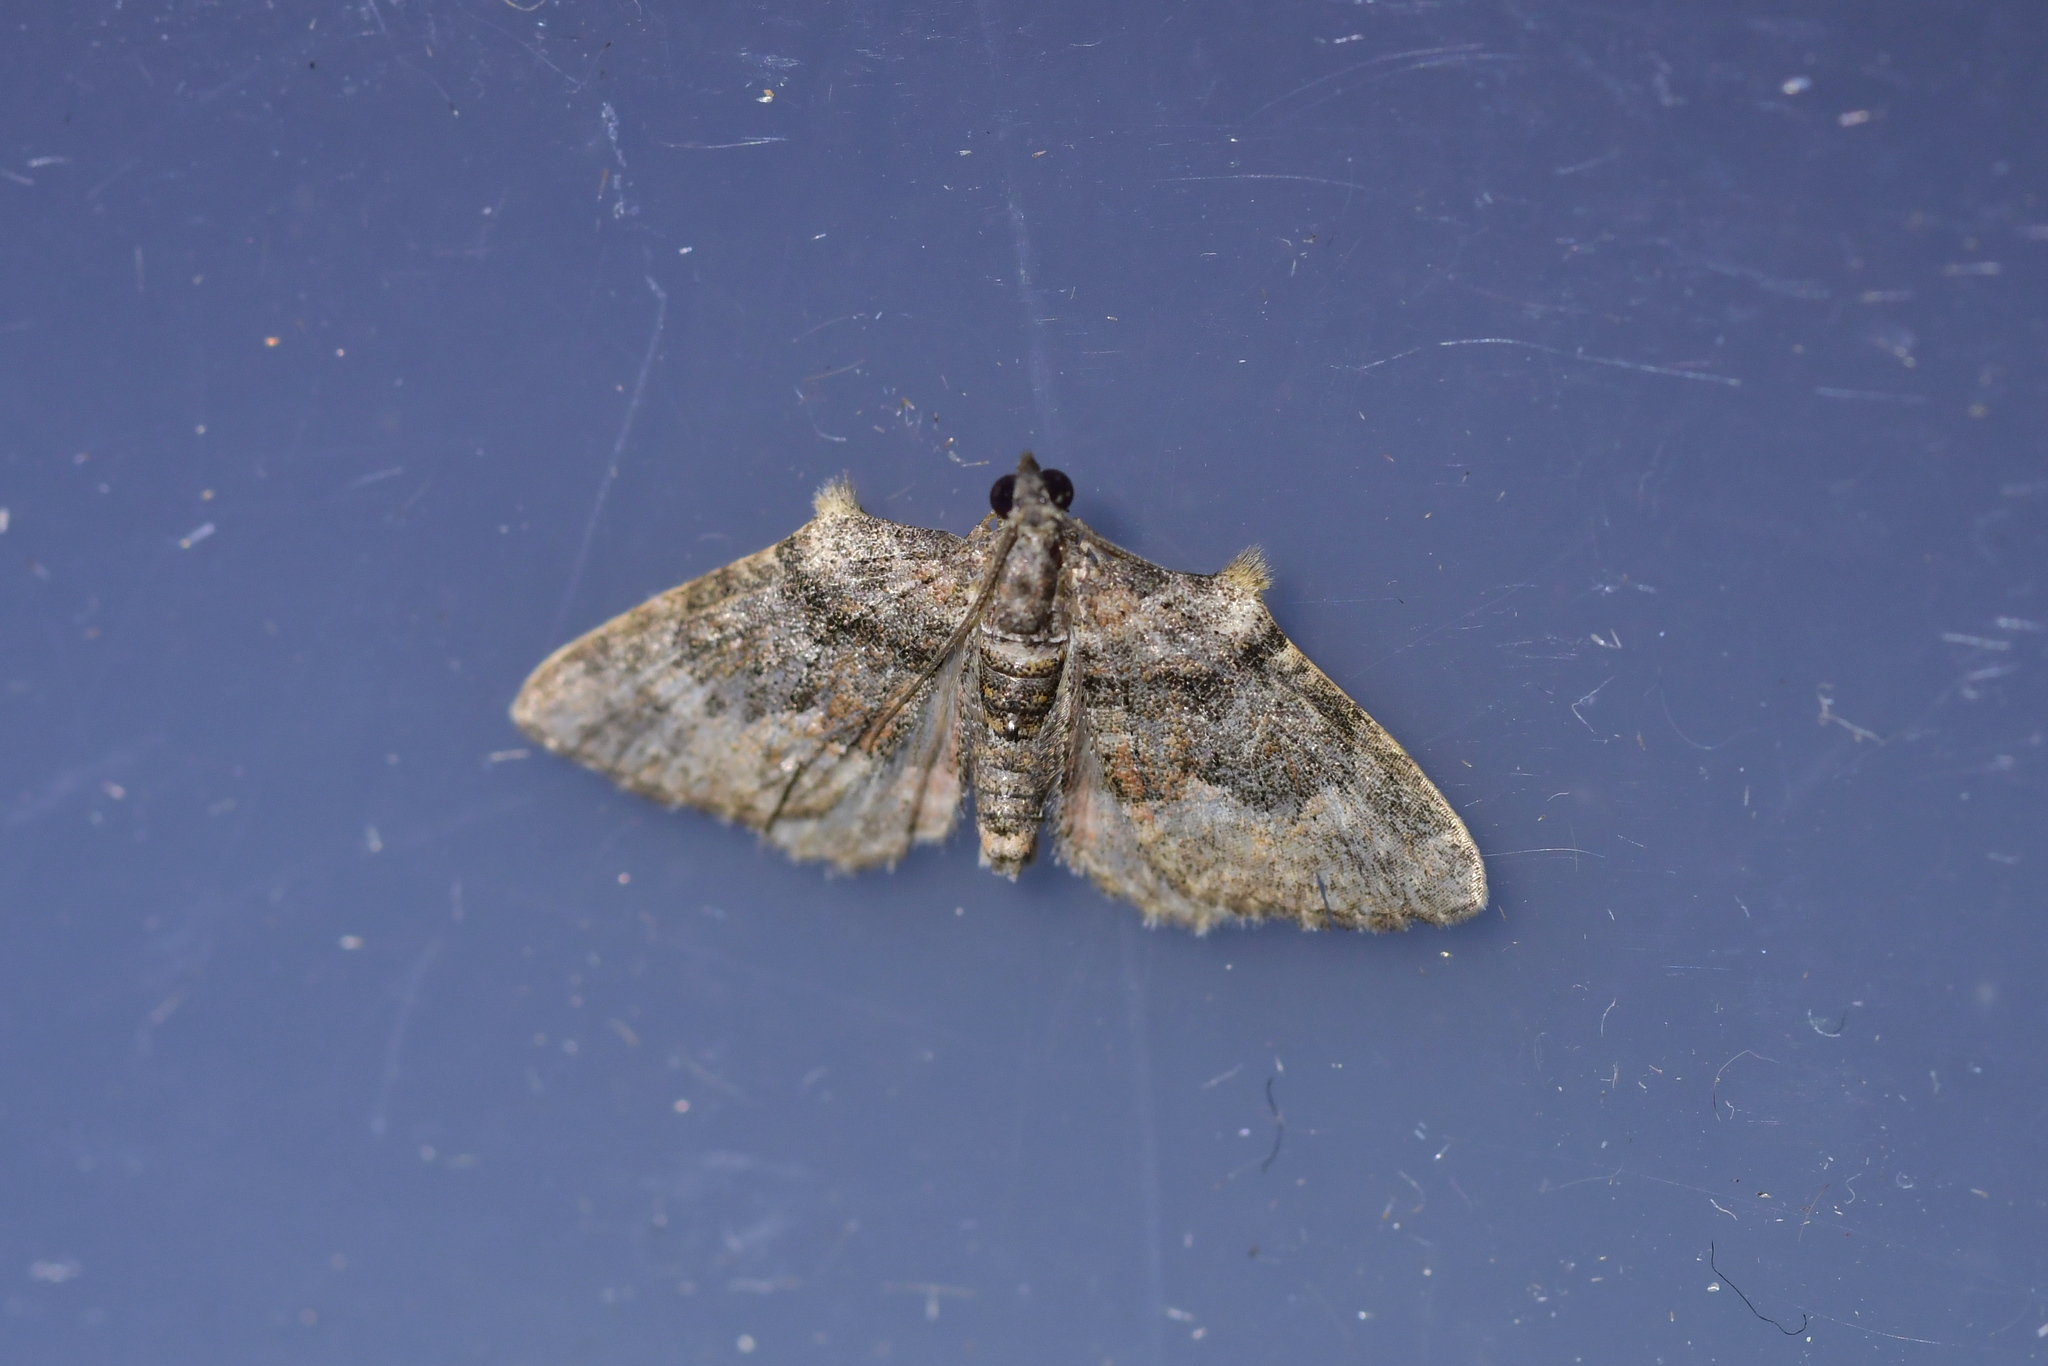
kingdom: Animalia
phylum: Arthropoda
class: Insecta
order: Lepidoptera
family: Geometridae
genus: Phrissogonus
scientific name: Phrissogonus laticostata
